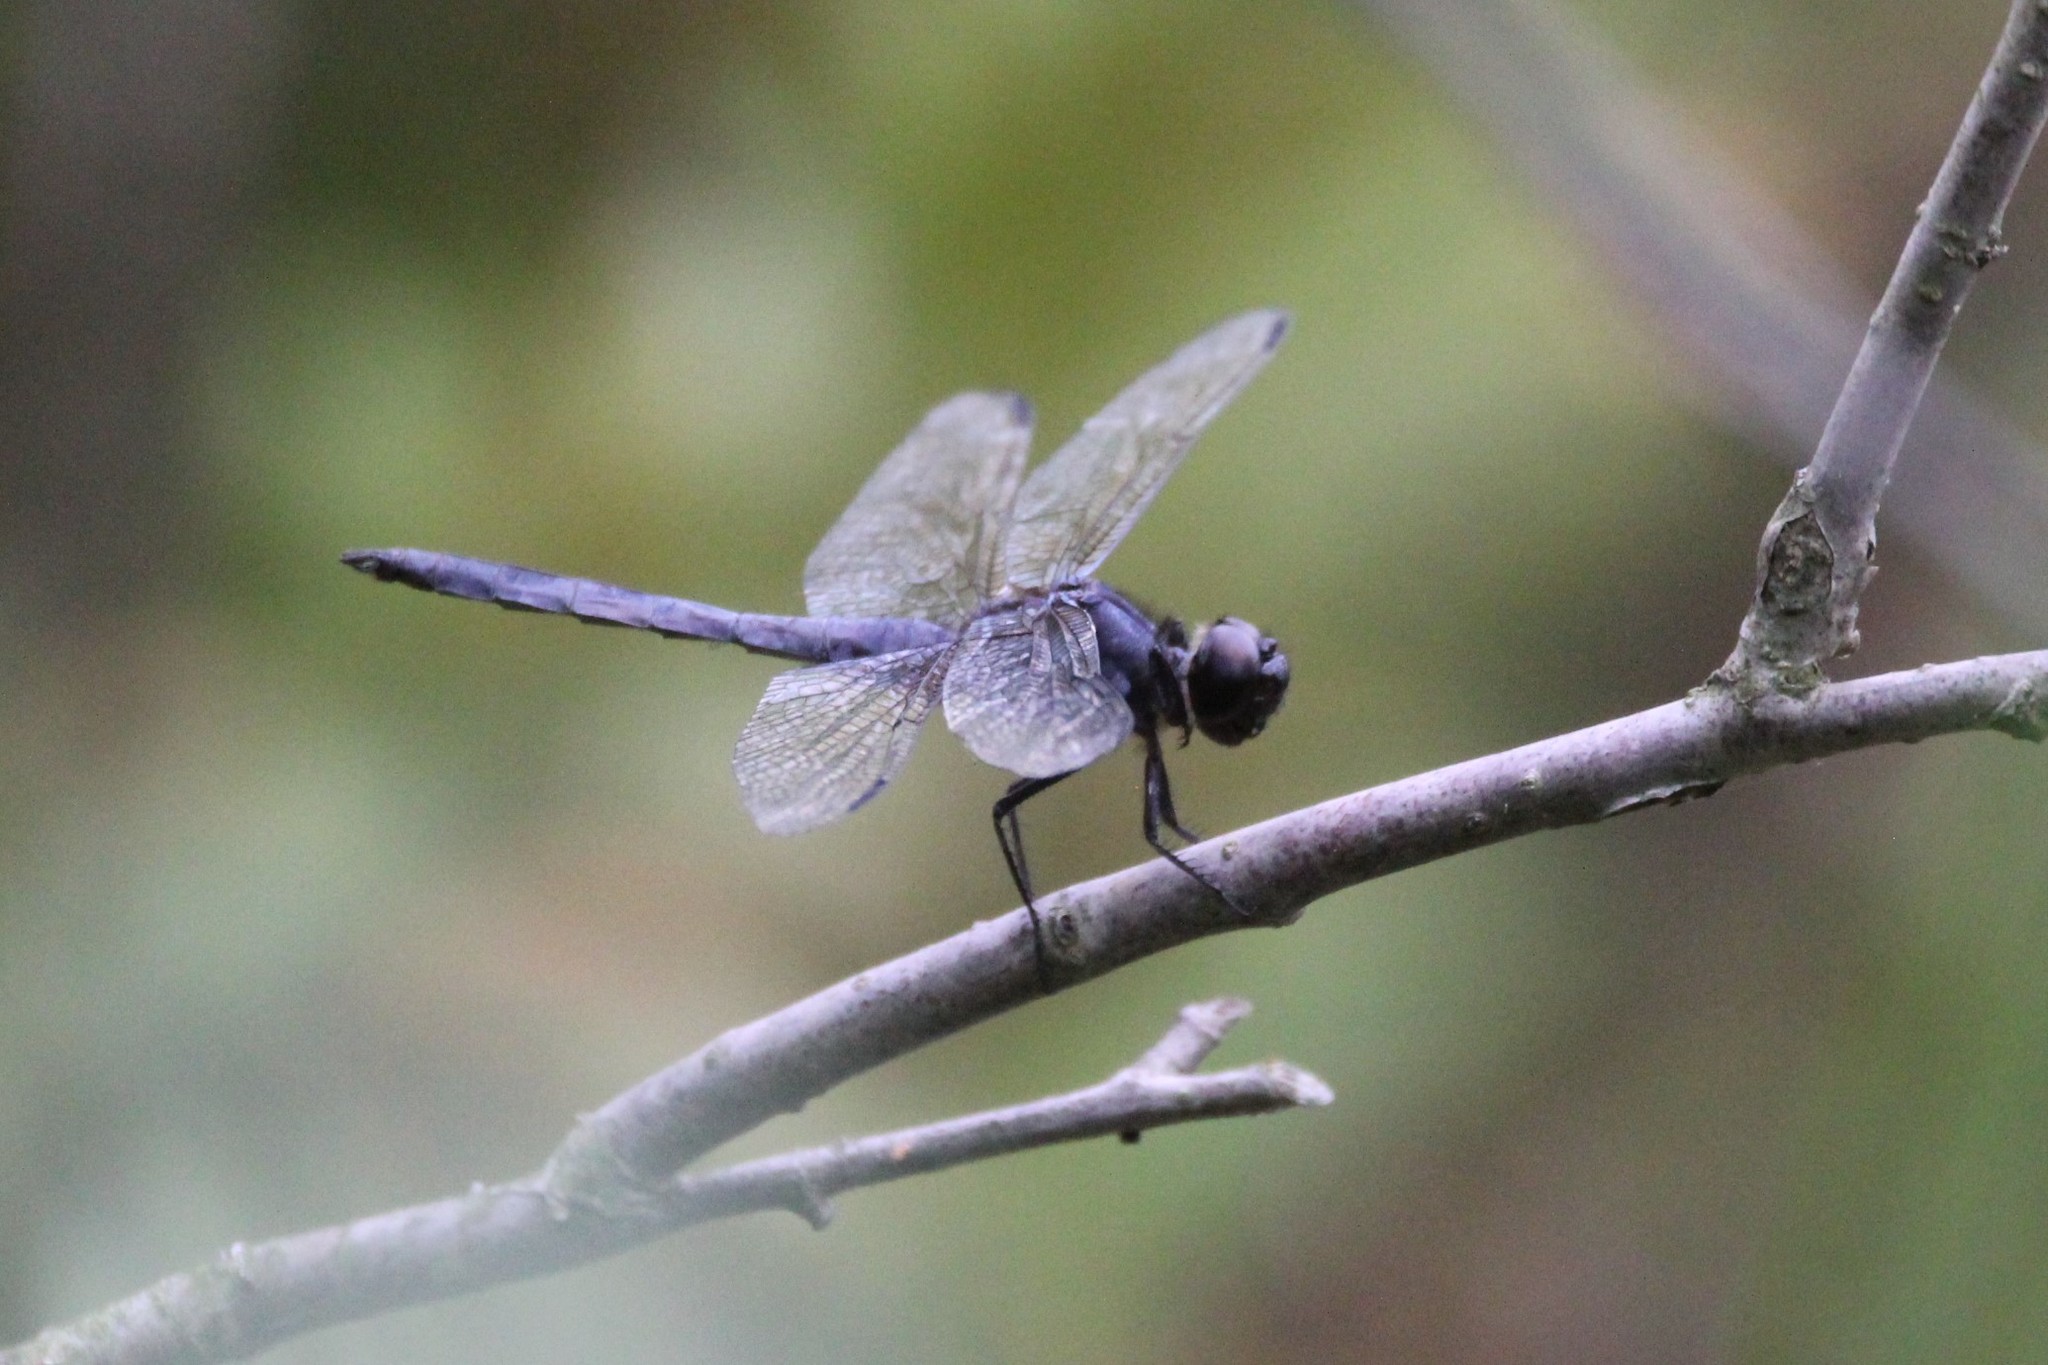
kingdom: Animalia
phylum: Arthropoda
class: Insecta
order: Odonata
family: Libellulidae
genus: Libellula
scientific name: Libellula incesta
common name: Slaty skimmer
